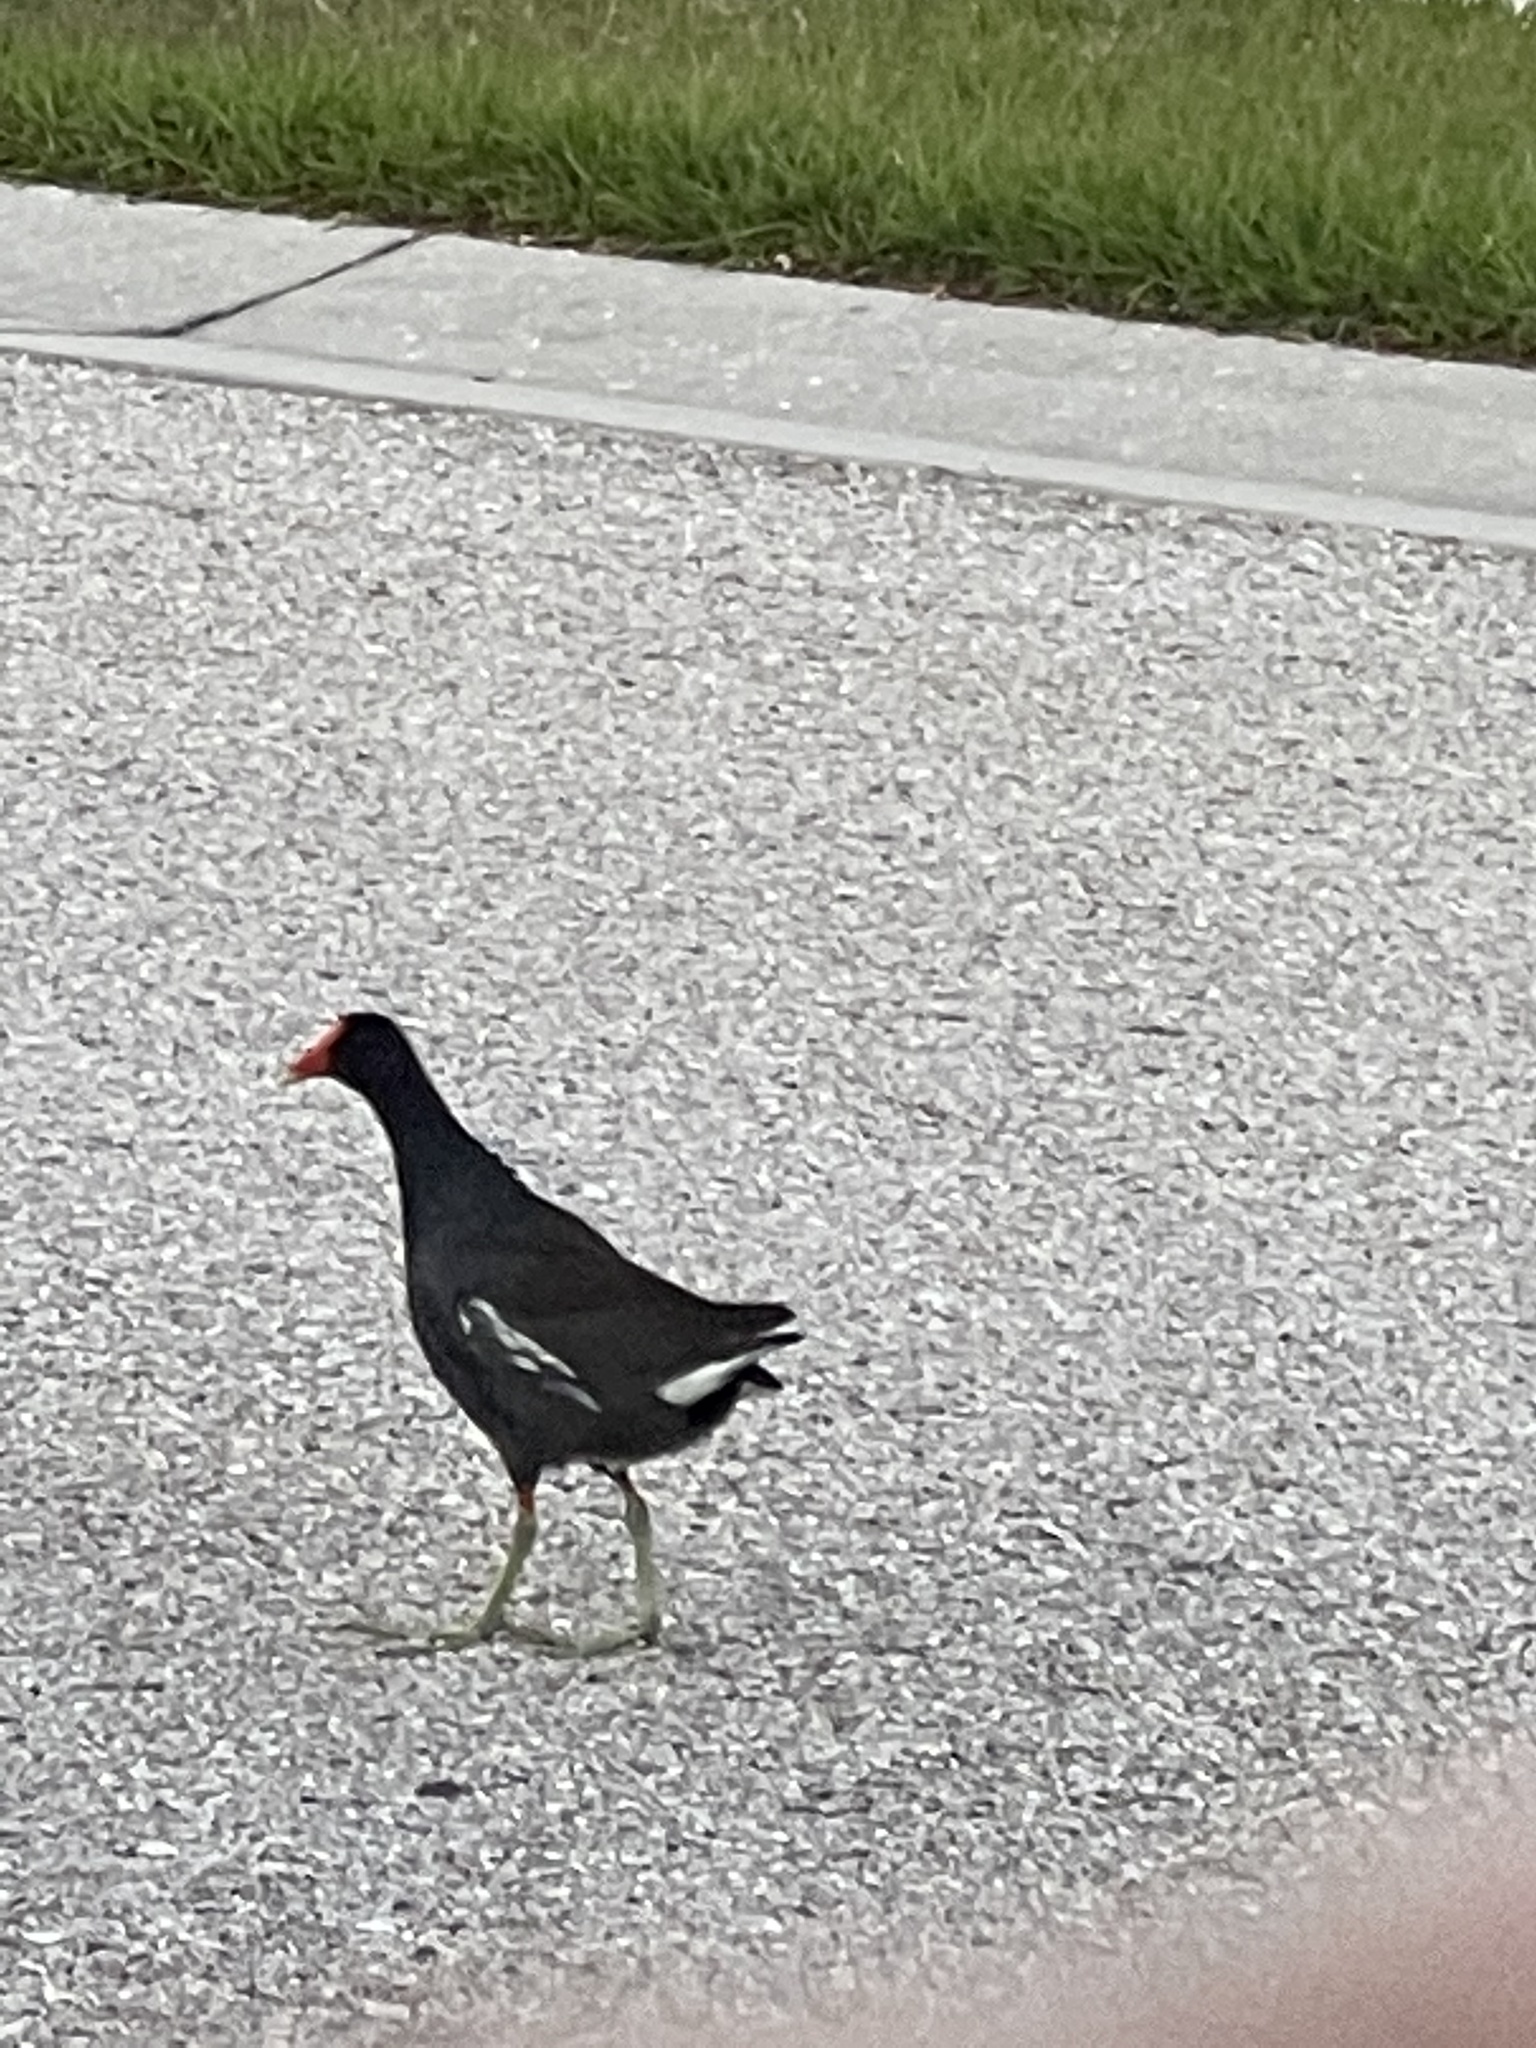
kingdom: Animalia
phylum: Chordata
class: Aves
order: Gruiformes
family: Rallidae
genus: Gallinula
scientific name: Gallinula chloropus
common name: Common moorhen
